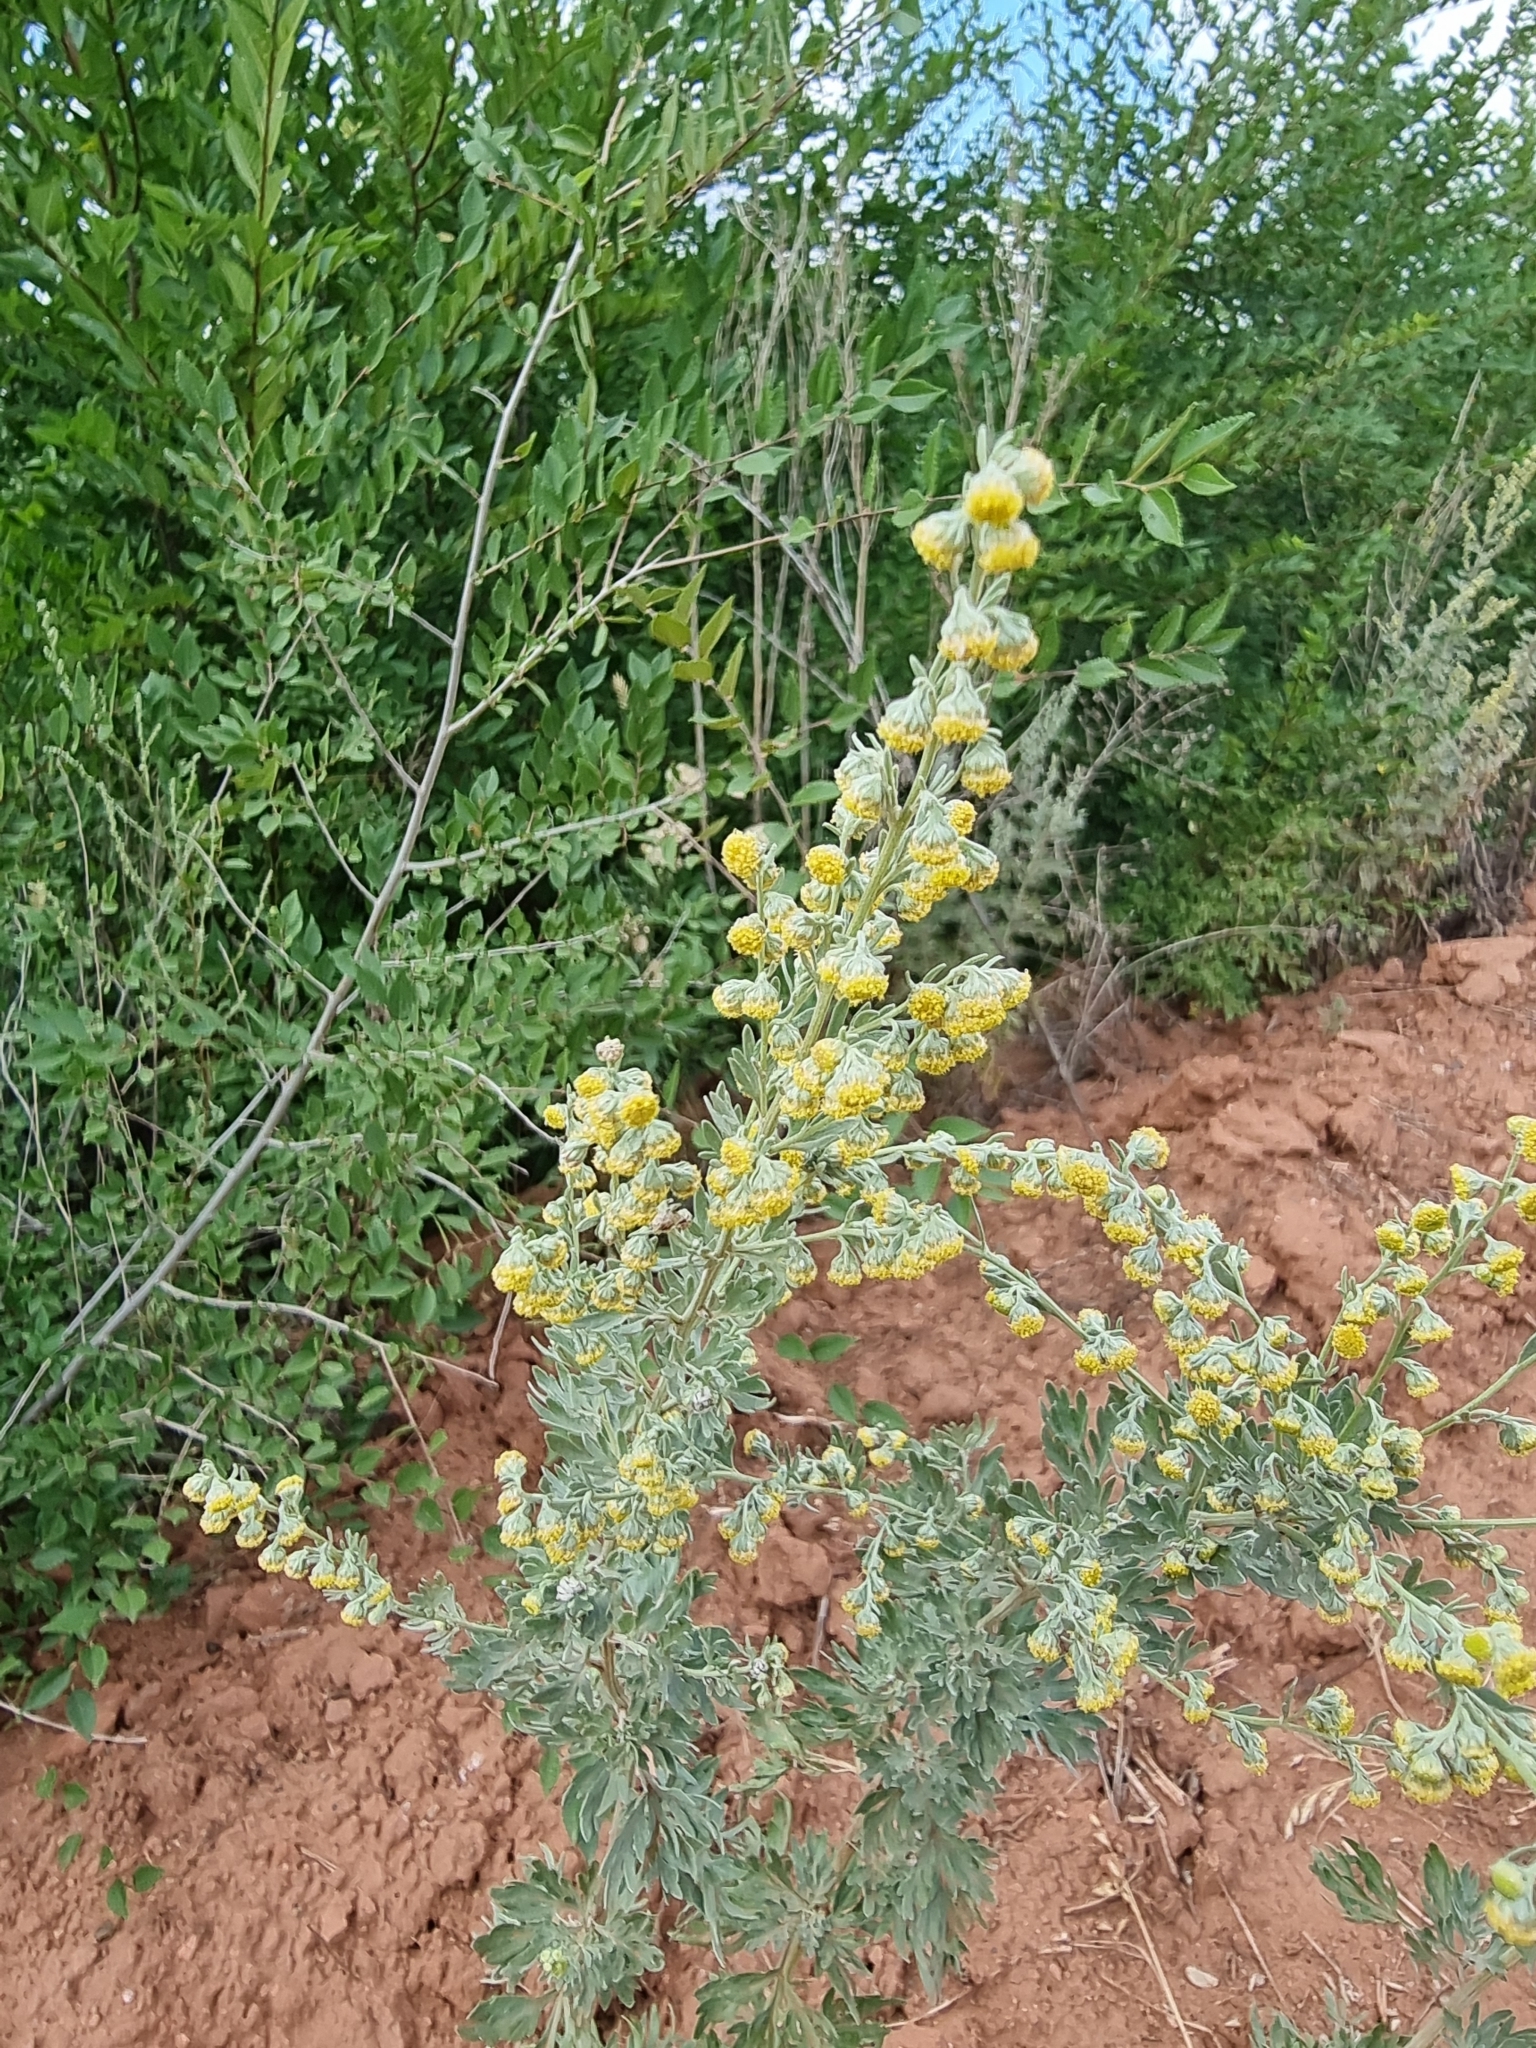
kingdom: Plantae
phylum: Tracheophyta
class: Magnoliopsida
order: Asterales
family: Asteraceae
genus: Artemisia
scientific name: Artemisia absinthium
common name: Wormwood
